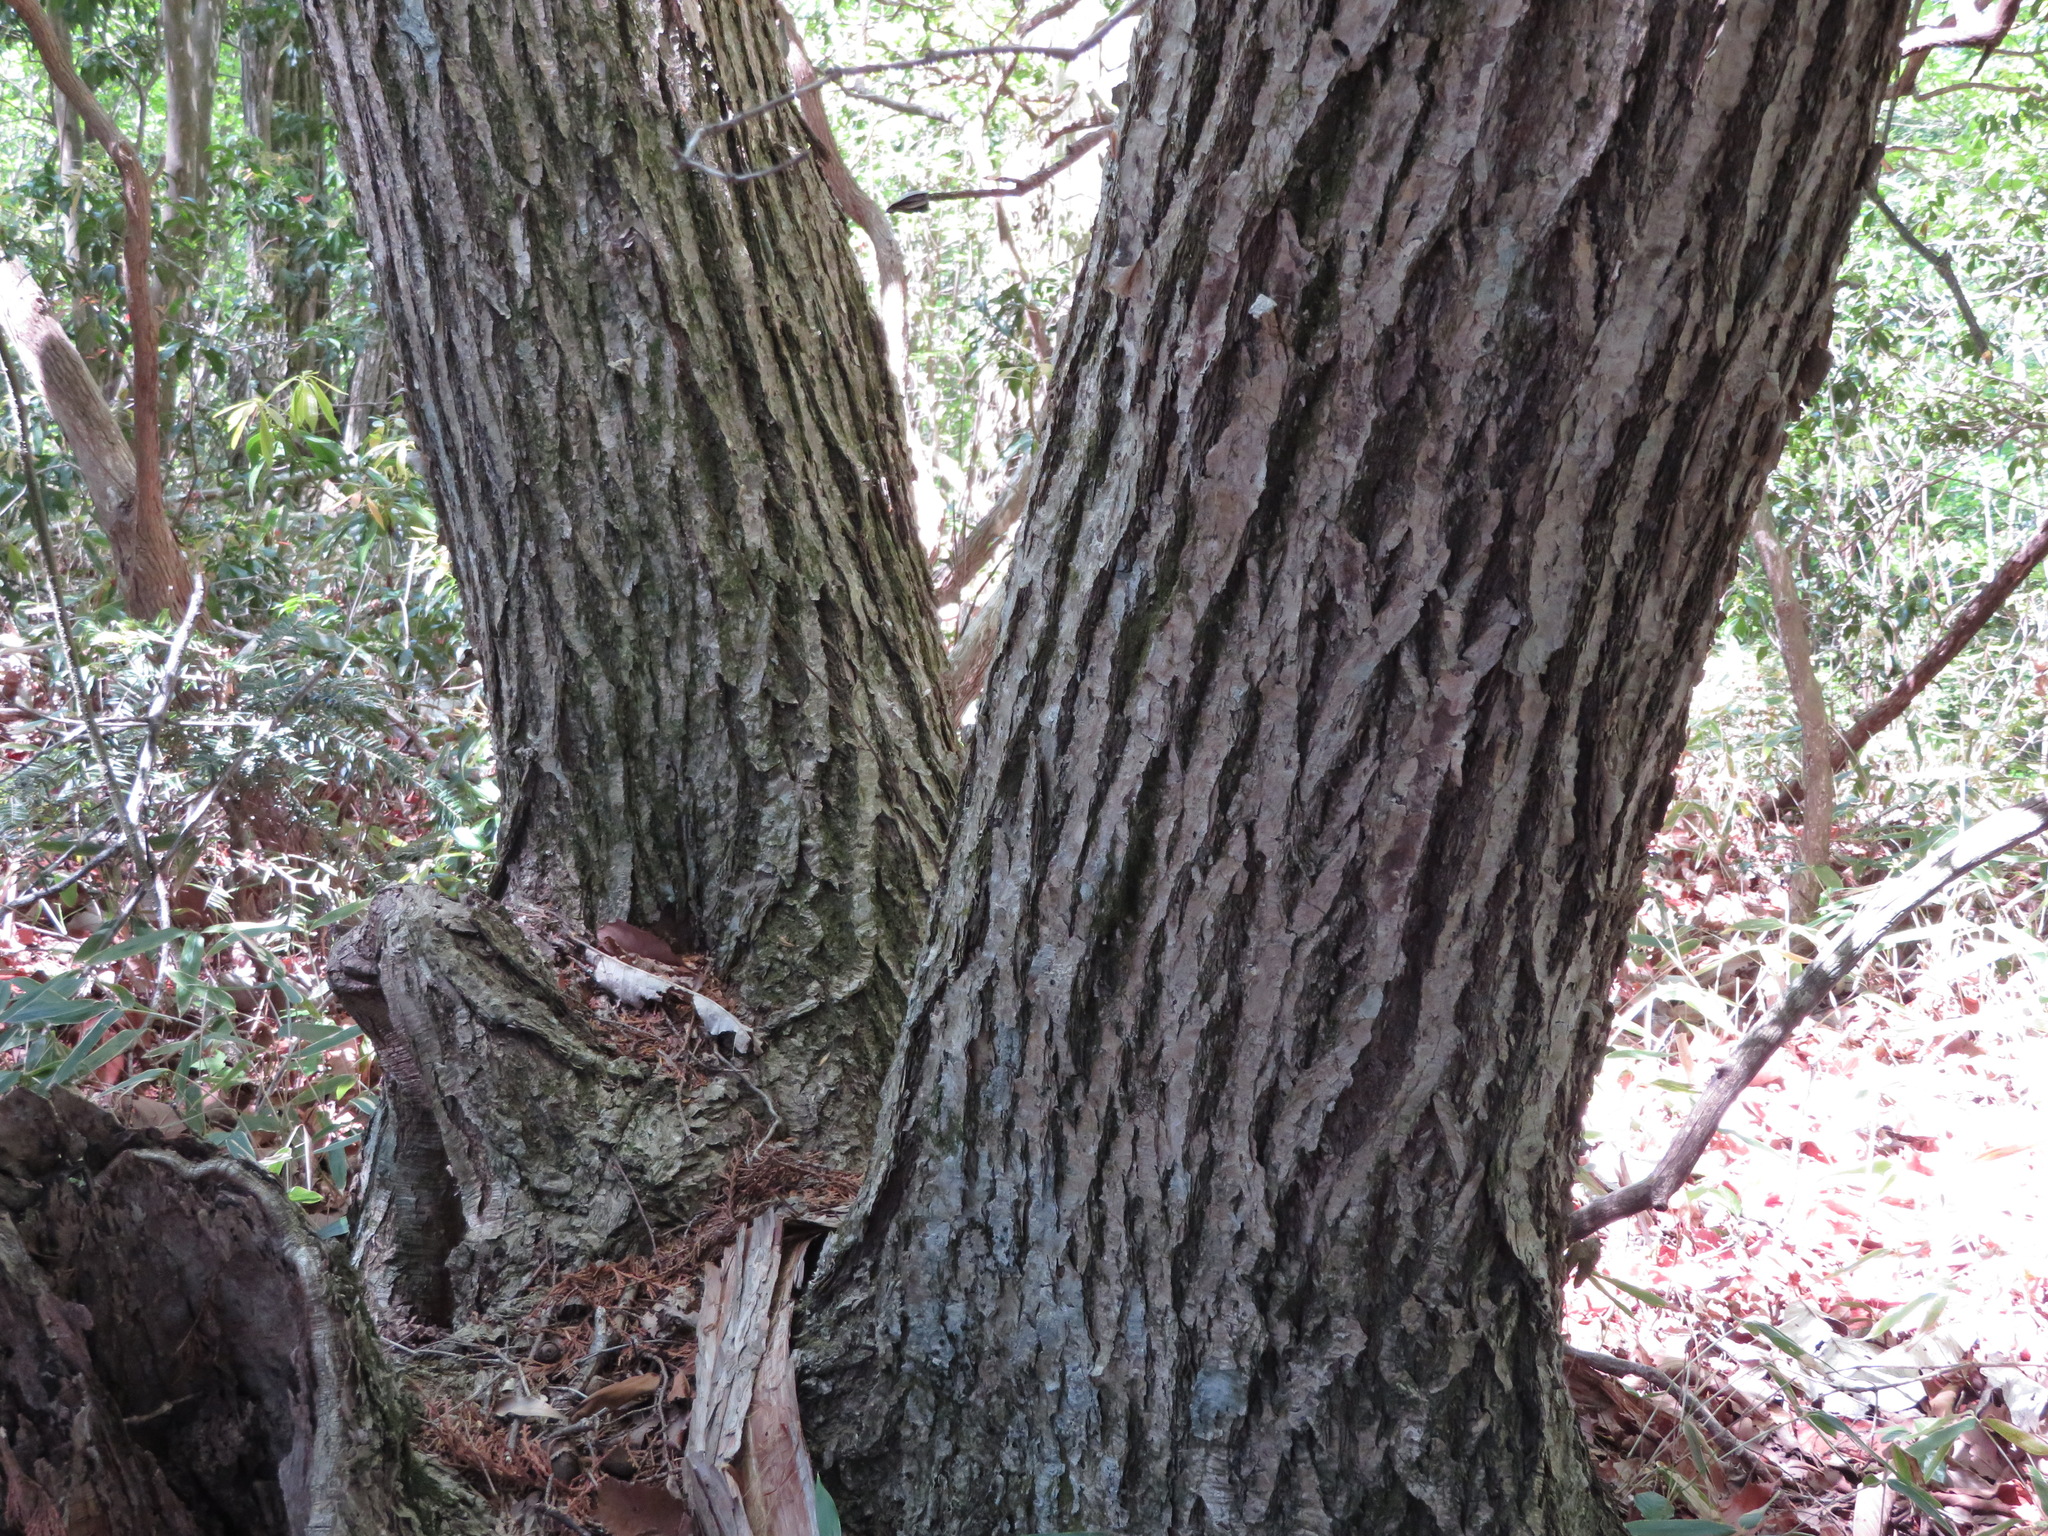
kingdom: Plantae
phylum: Tracheophyta
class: Magnoliopsida
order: Fagales
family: Fagaceae
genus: Quercus
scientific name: Quercus crispula
